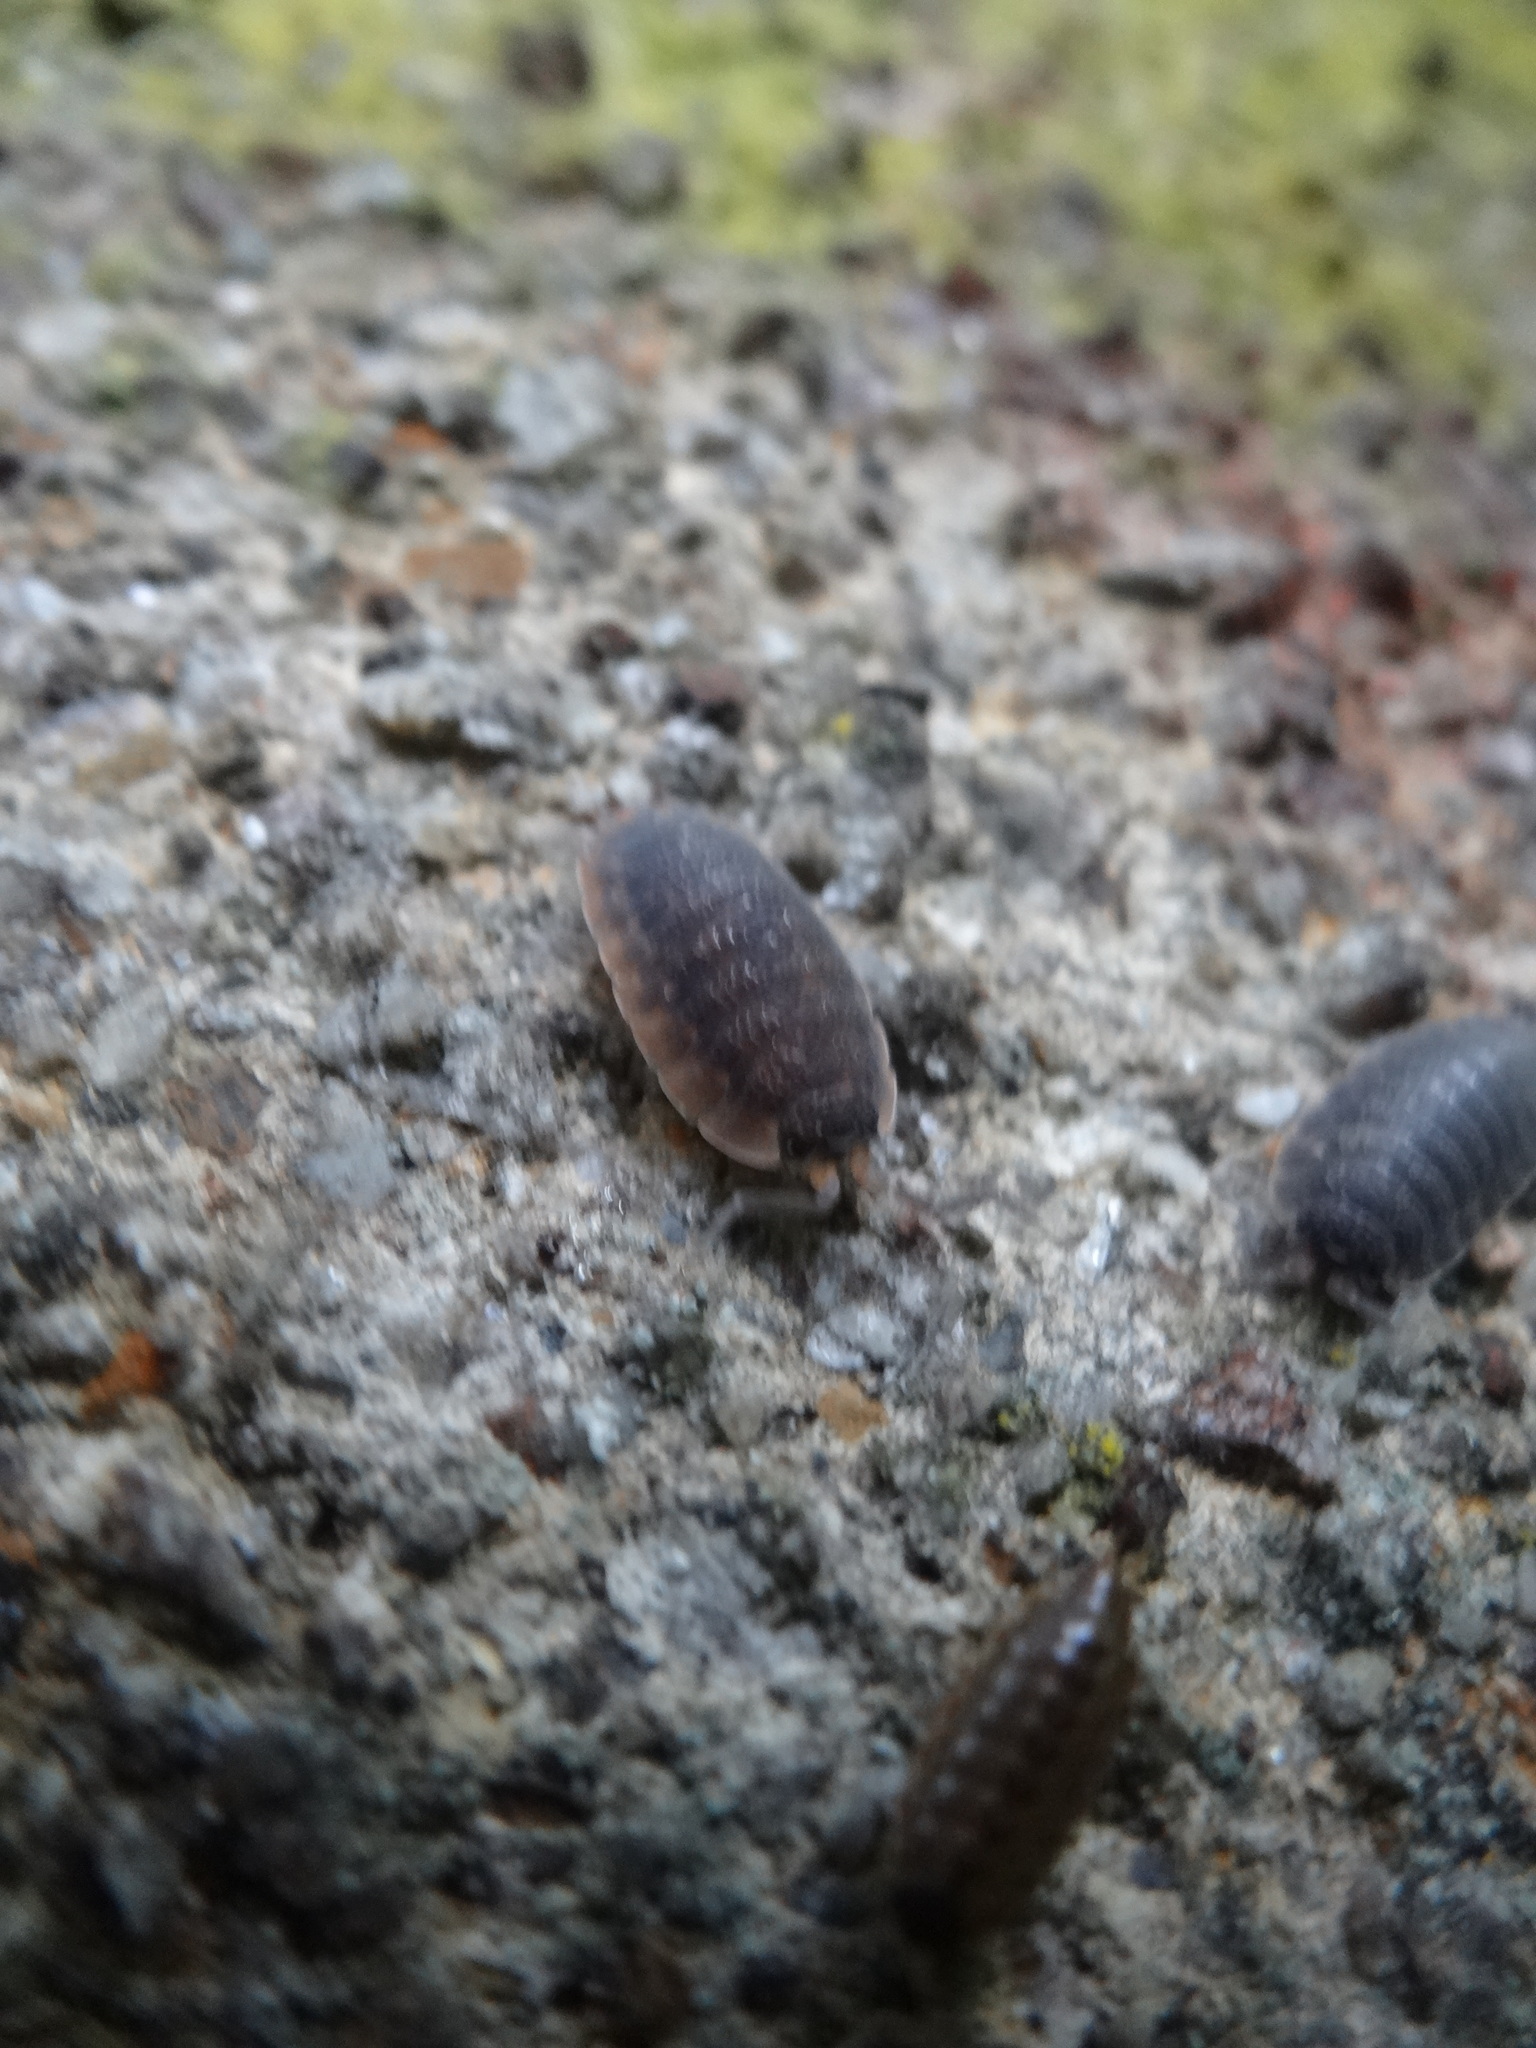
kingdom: Animalia
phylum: Arthropoda
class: Malacostraca
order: Isopoda
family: Porcellionidae
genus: Porcellio
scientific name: Porcellio scaber
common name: Common rough woodlouse
